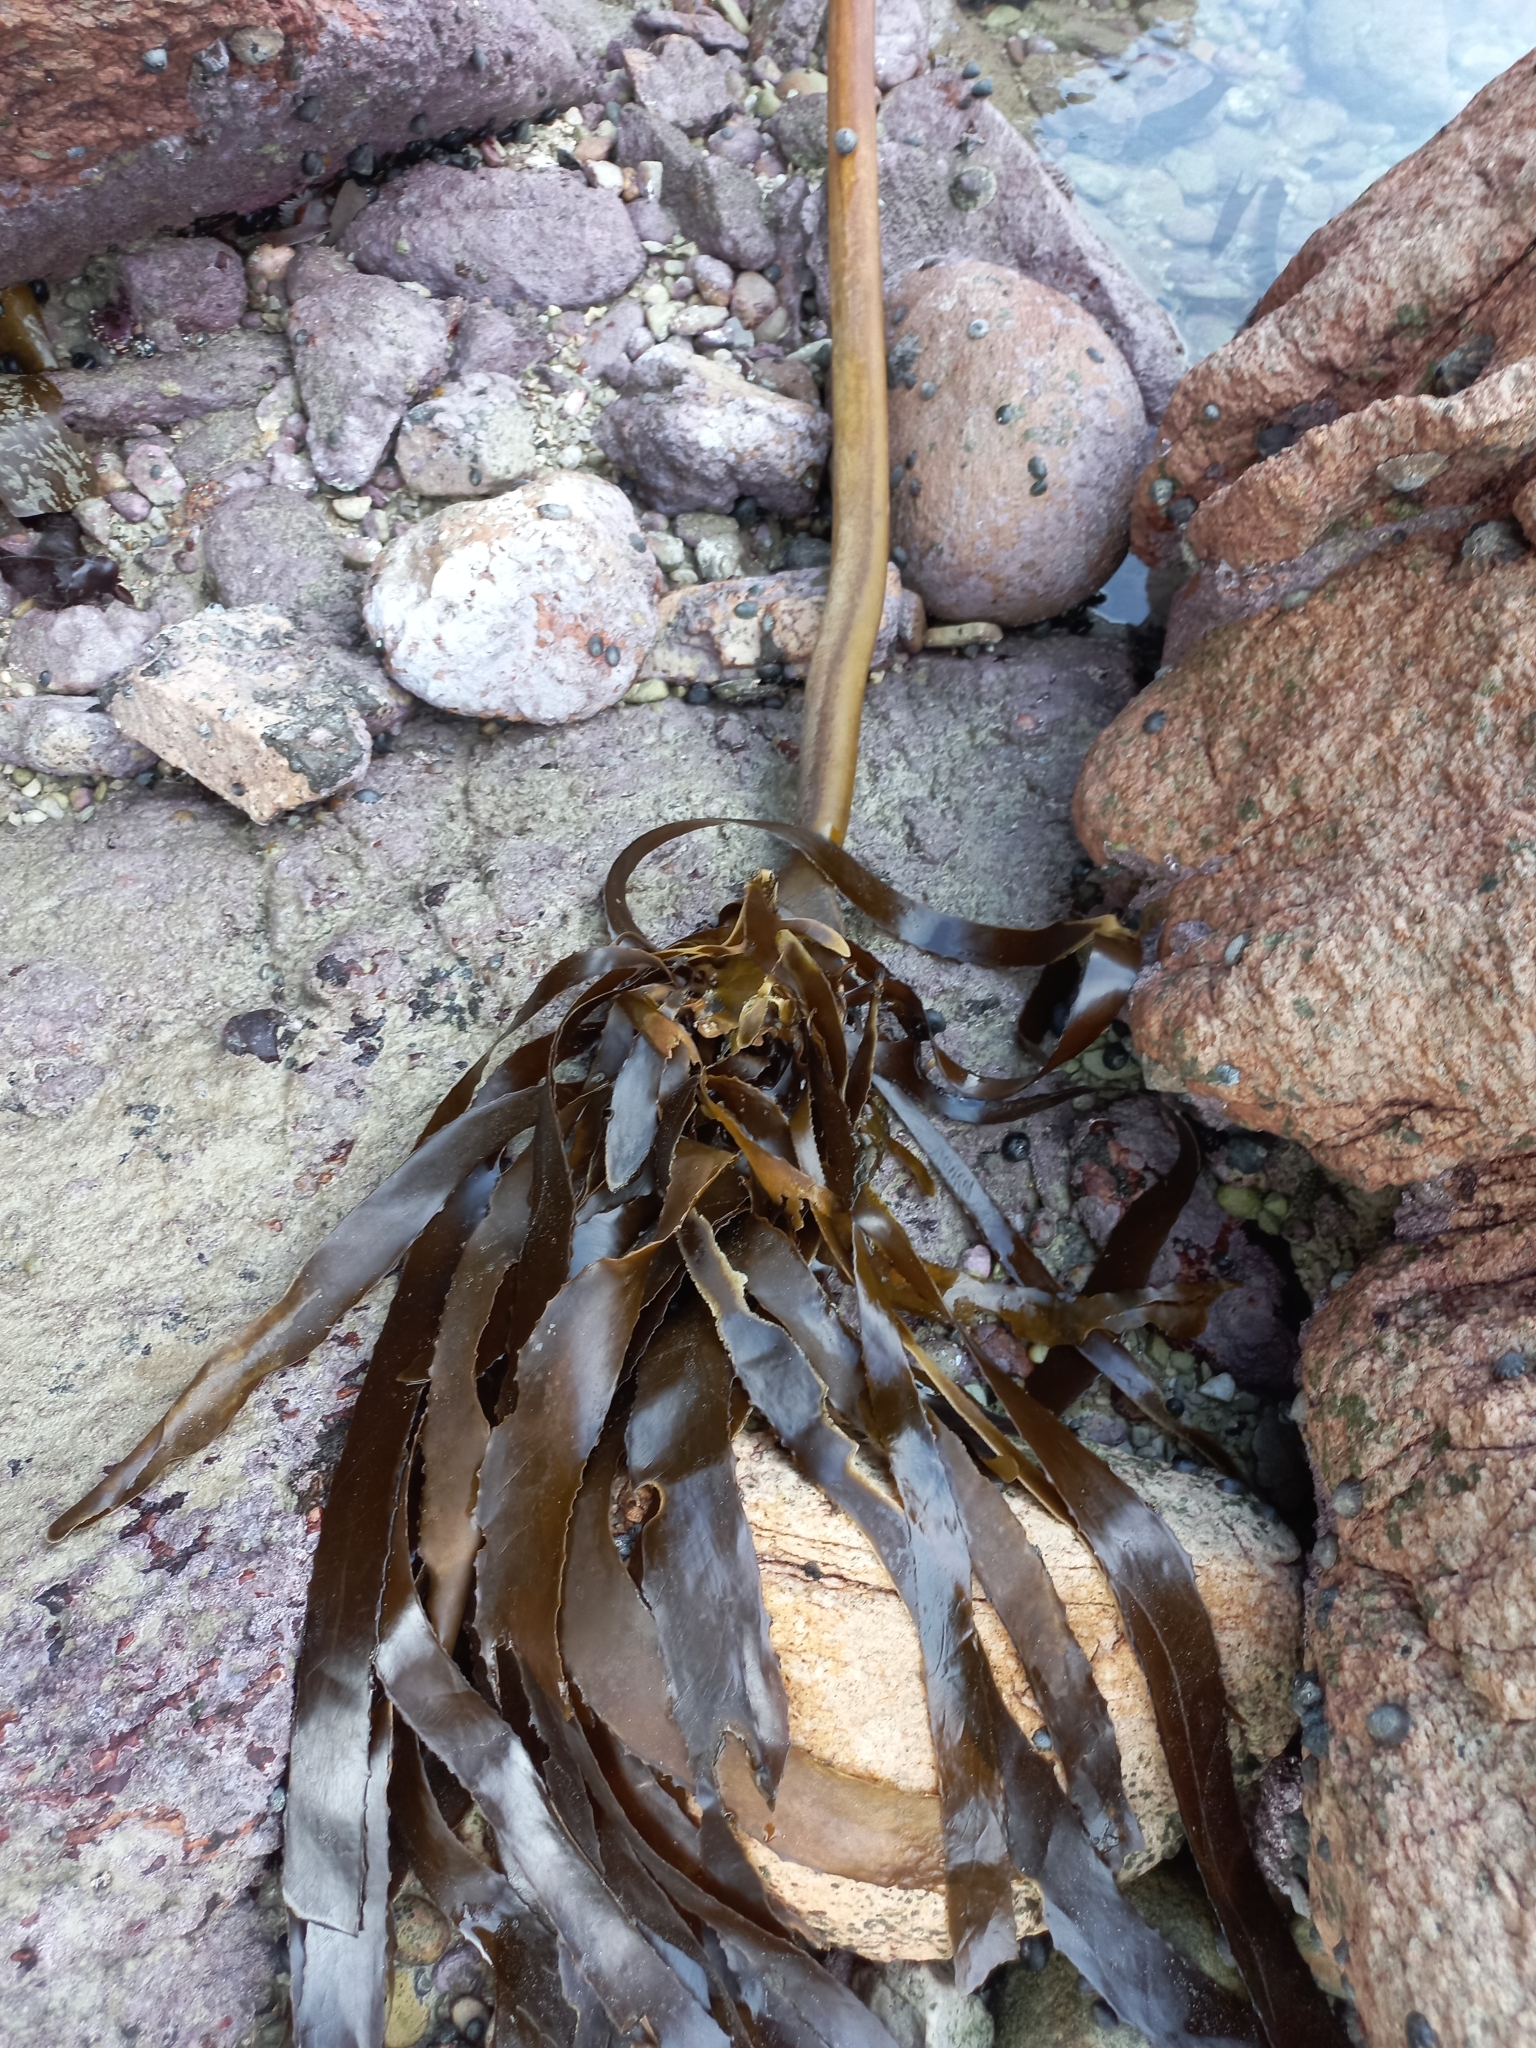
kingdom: Chromista
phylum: Ochrophyta
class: Phaeophyceae
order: Laminariales
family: Lessoniaceae
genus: Ecklonia
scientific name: Ecklonia
